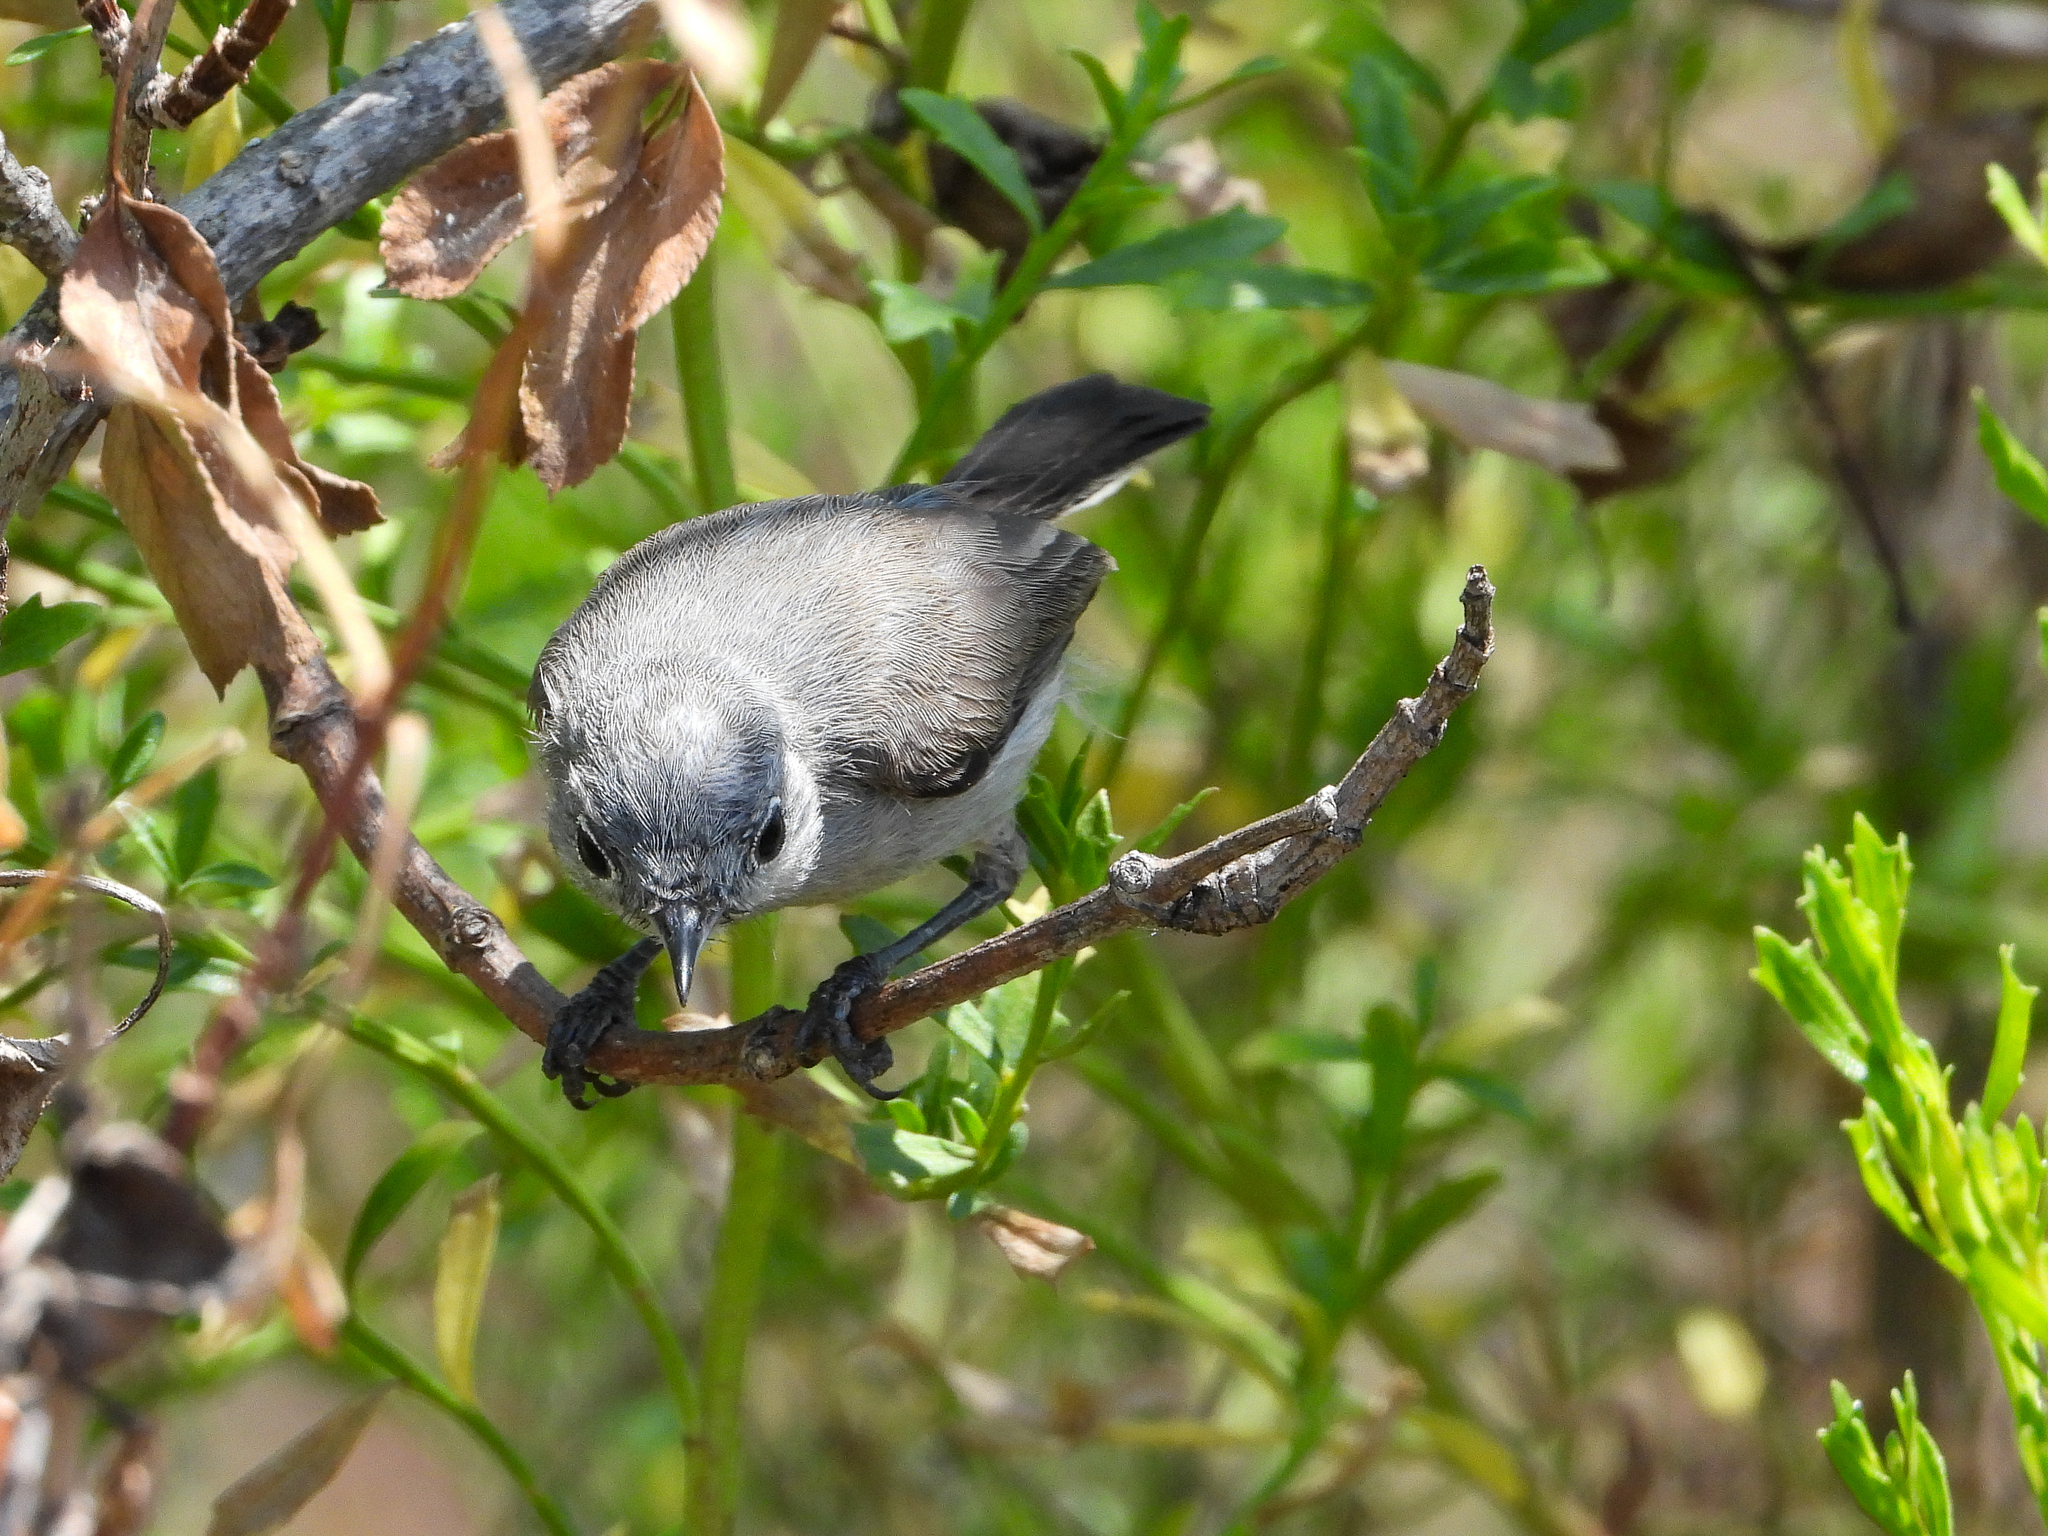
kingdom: Animalia
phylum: Chordata
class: Aves
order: Passeriformes
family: Polioptilidae
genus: Polioptila
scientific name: Polioptila californica
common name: California gnatcatcher
